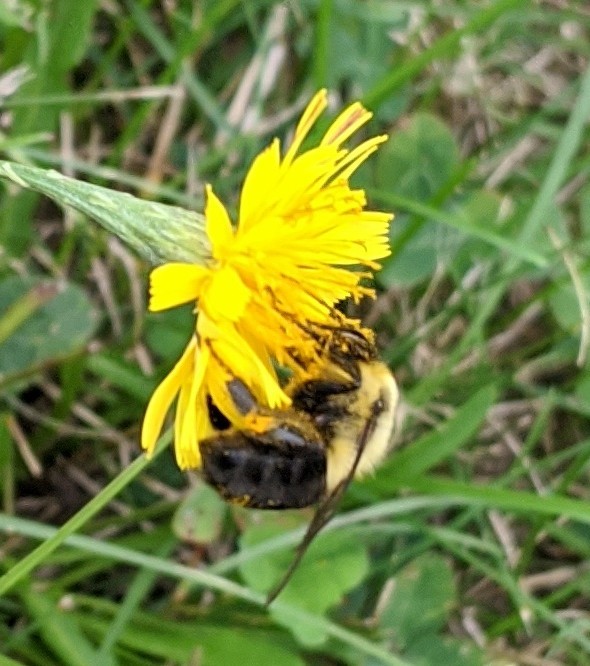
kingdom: Animalia
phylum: Arthropoda
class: Insecta
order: Hymenoptera
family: Apidae
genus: Bombus
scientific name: Bombus impatiens
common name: Common eastern bumble bee
